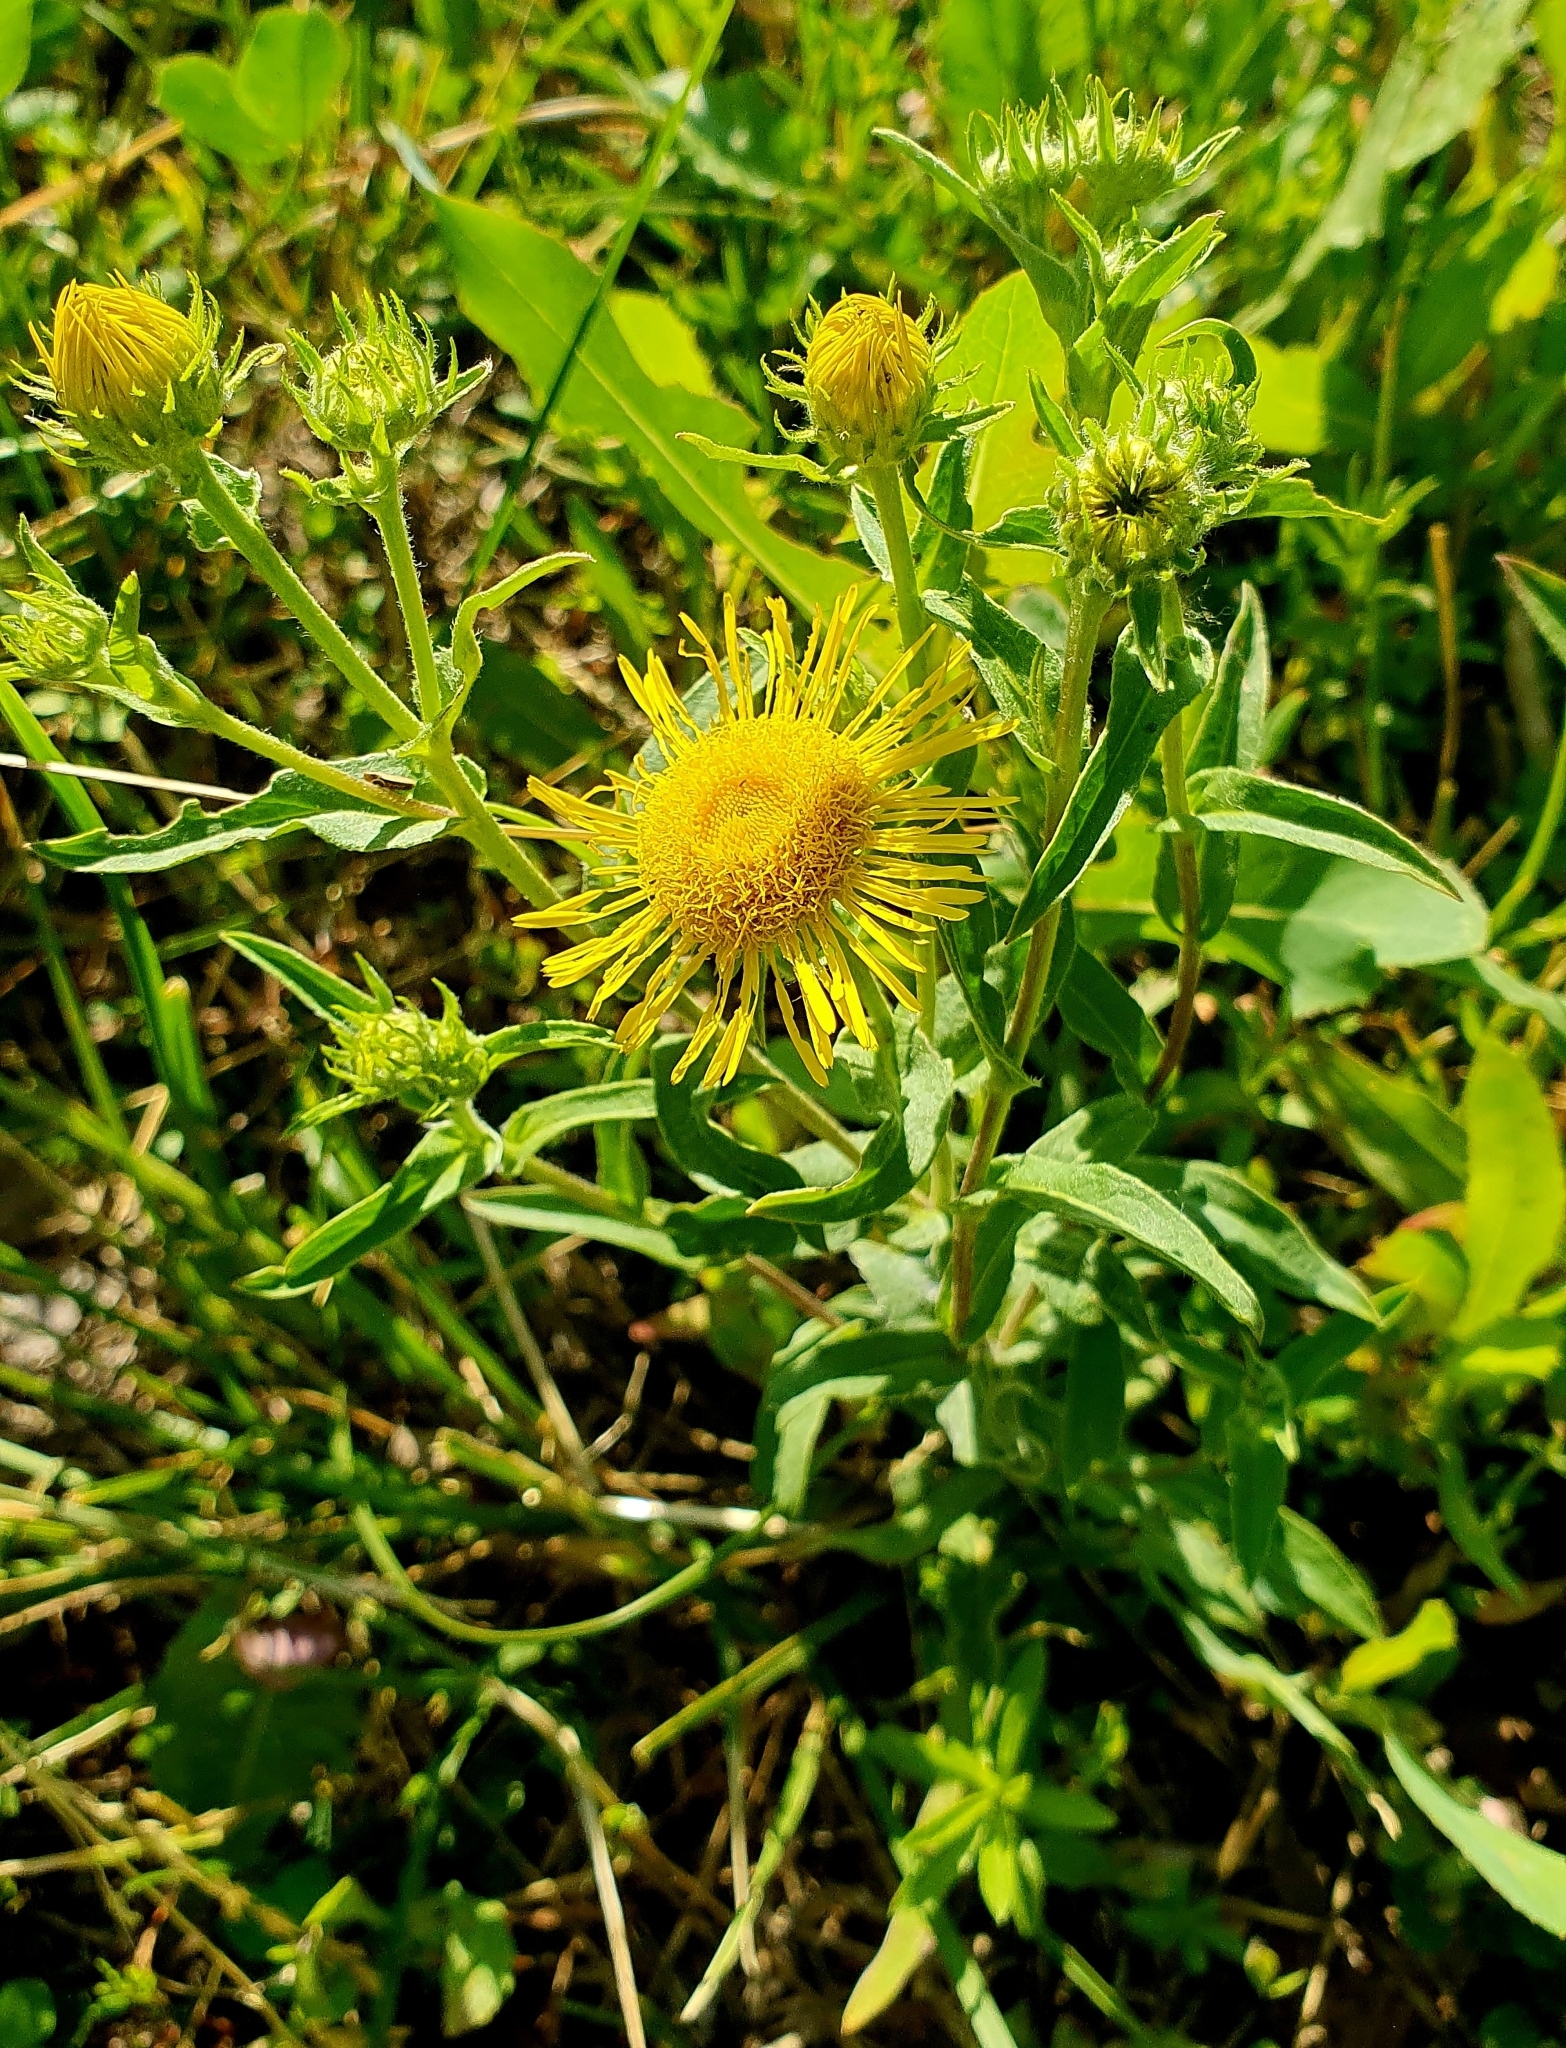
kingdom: Plantae
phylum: Tracheophyta
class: Magnoliopsida
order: Asterales
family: Asteraceae
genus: Pentanema
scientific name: Pentanema britannicum
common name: British elecampane
